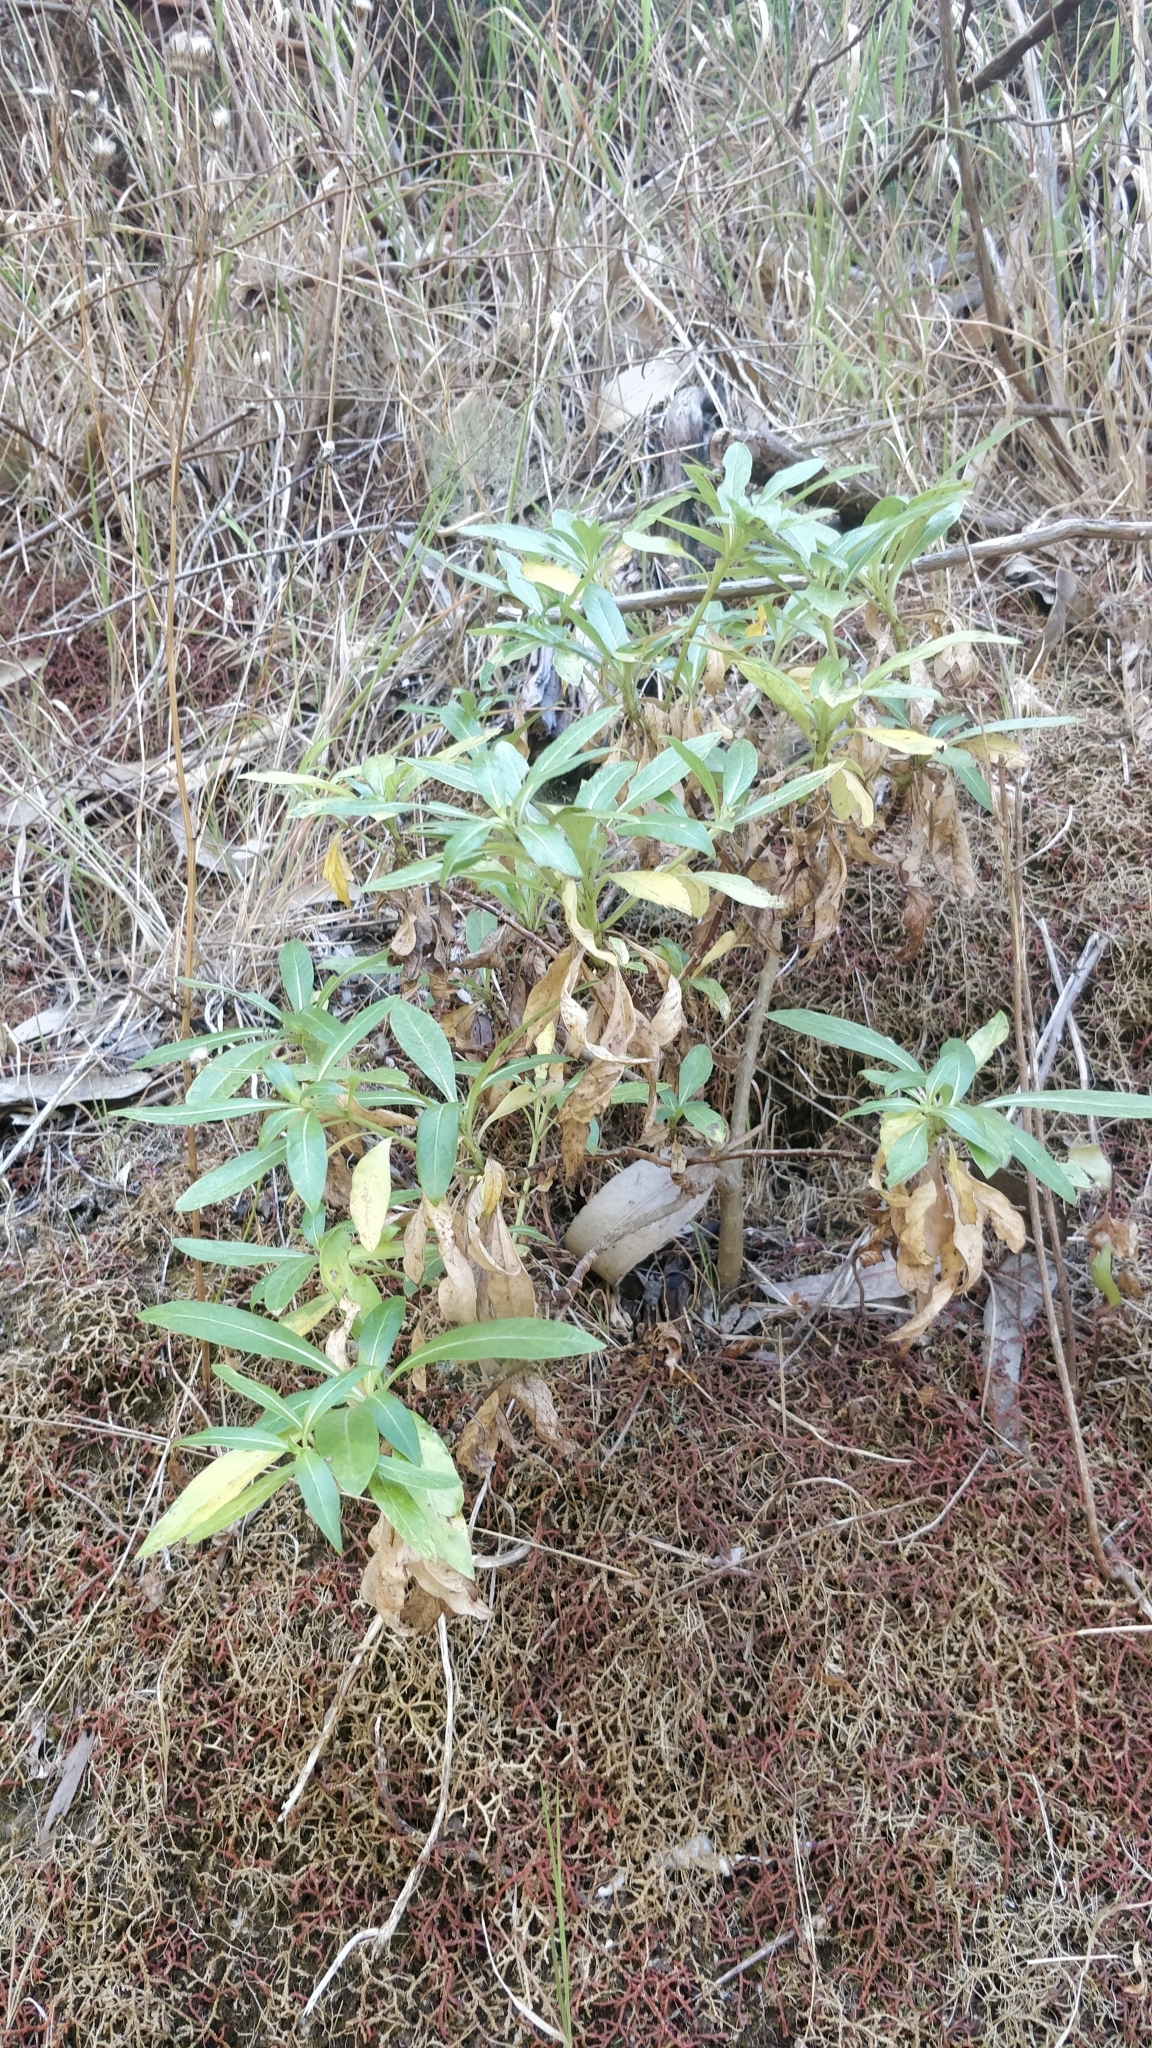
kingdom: Plantae
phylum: Tracheophyta
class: Magnoliopsida
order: Gentianales
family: Rubiaceae
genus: Phyllis
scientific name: Phyllis nobla
